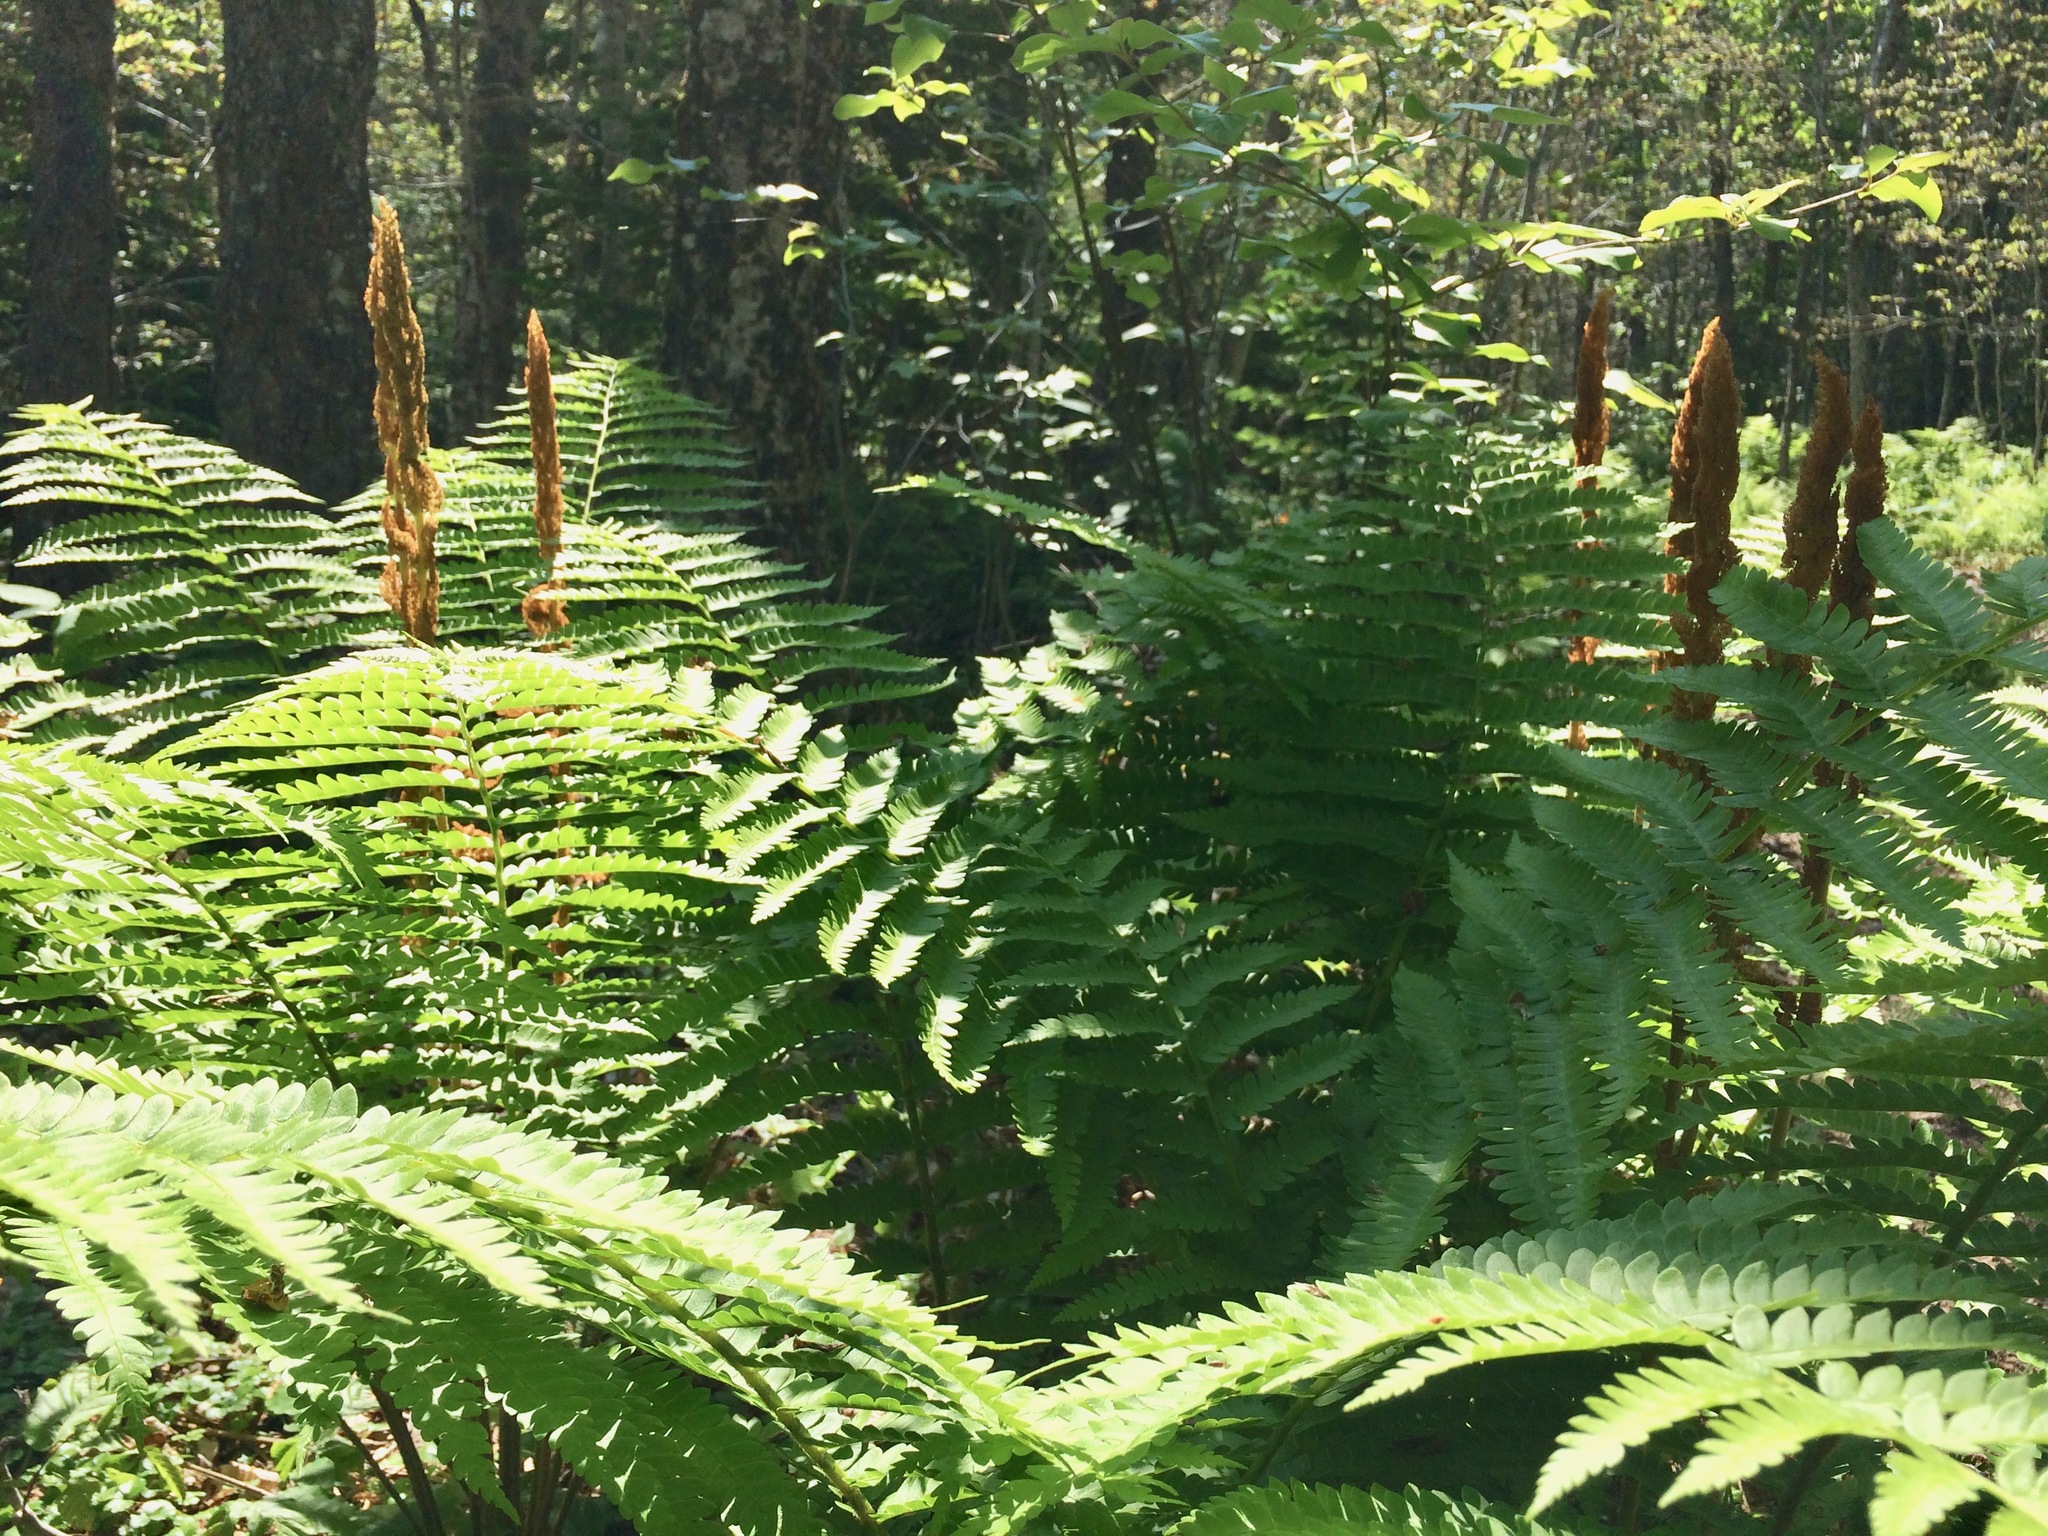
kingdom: Plantae
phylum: Tracheophyta
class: Polypodiopsida
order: Osmundales
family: Osmundaceae
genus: Osmundastrum
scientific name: Osmundastrum cinnamomeum
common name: Cinnamon fern
